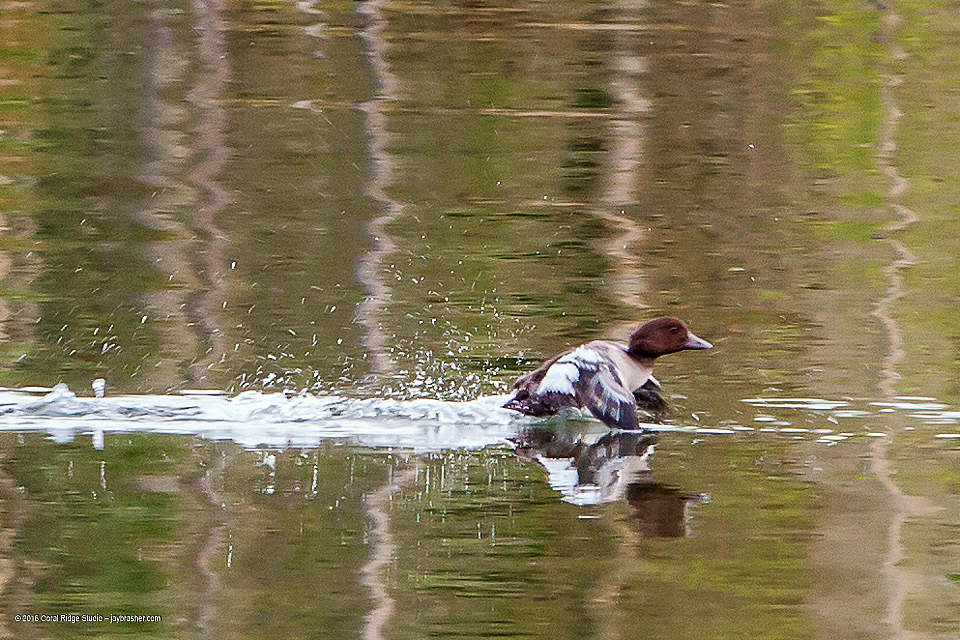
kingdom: Animalia
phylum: Chordata
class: Aves
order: Anseriformes
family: Anatidae
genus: Bucephala
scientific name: Bucephala clangula
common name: Common goldeneye
